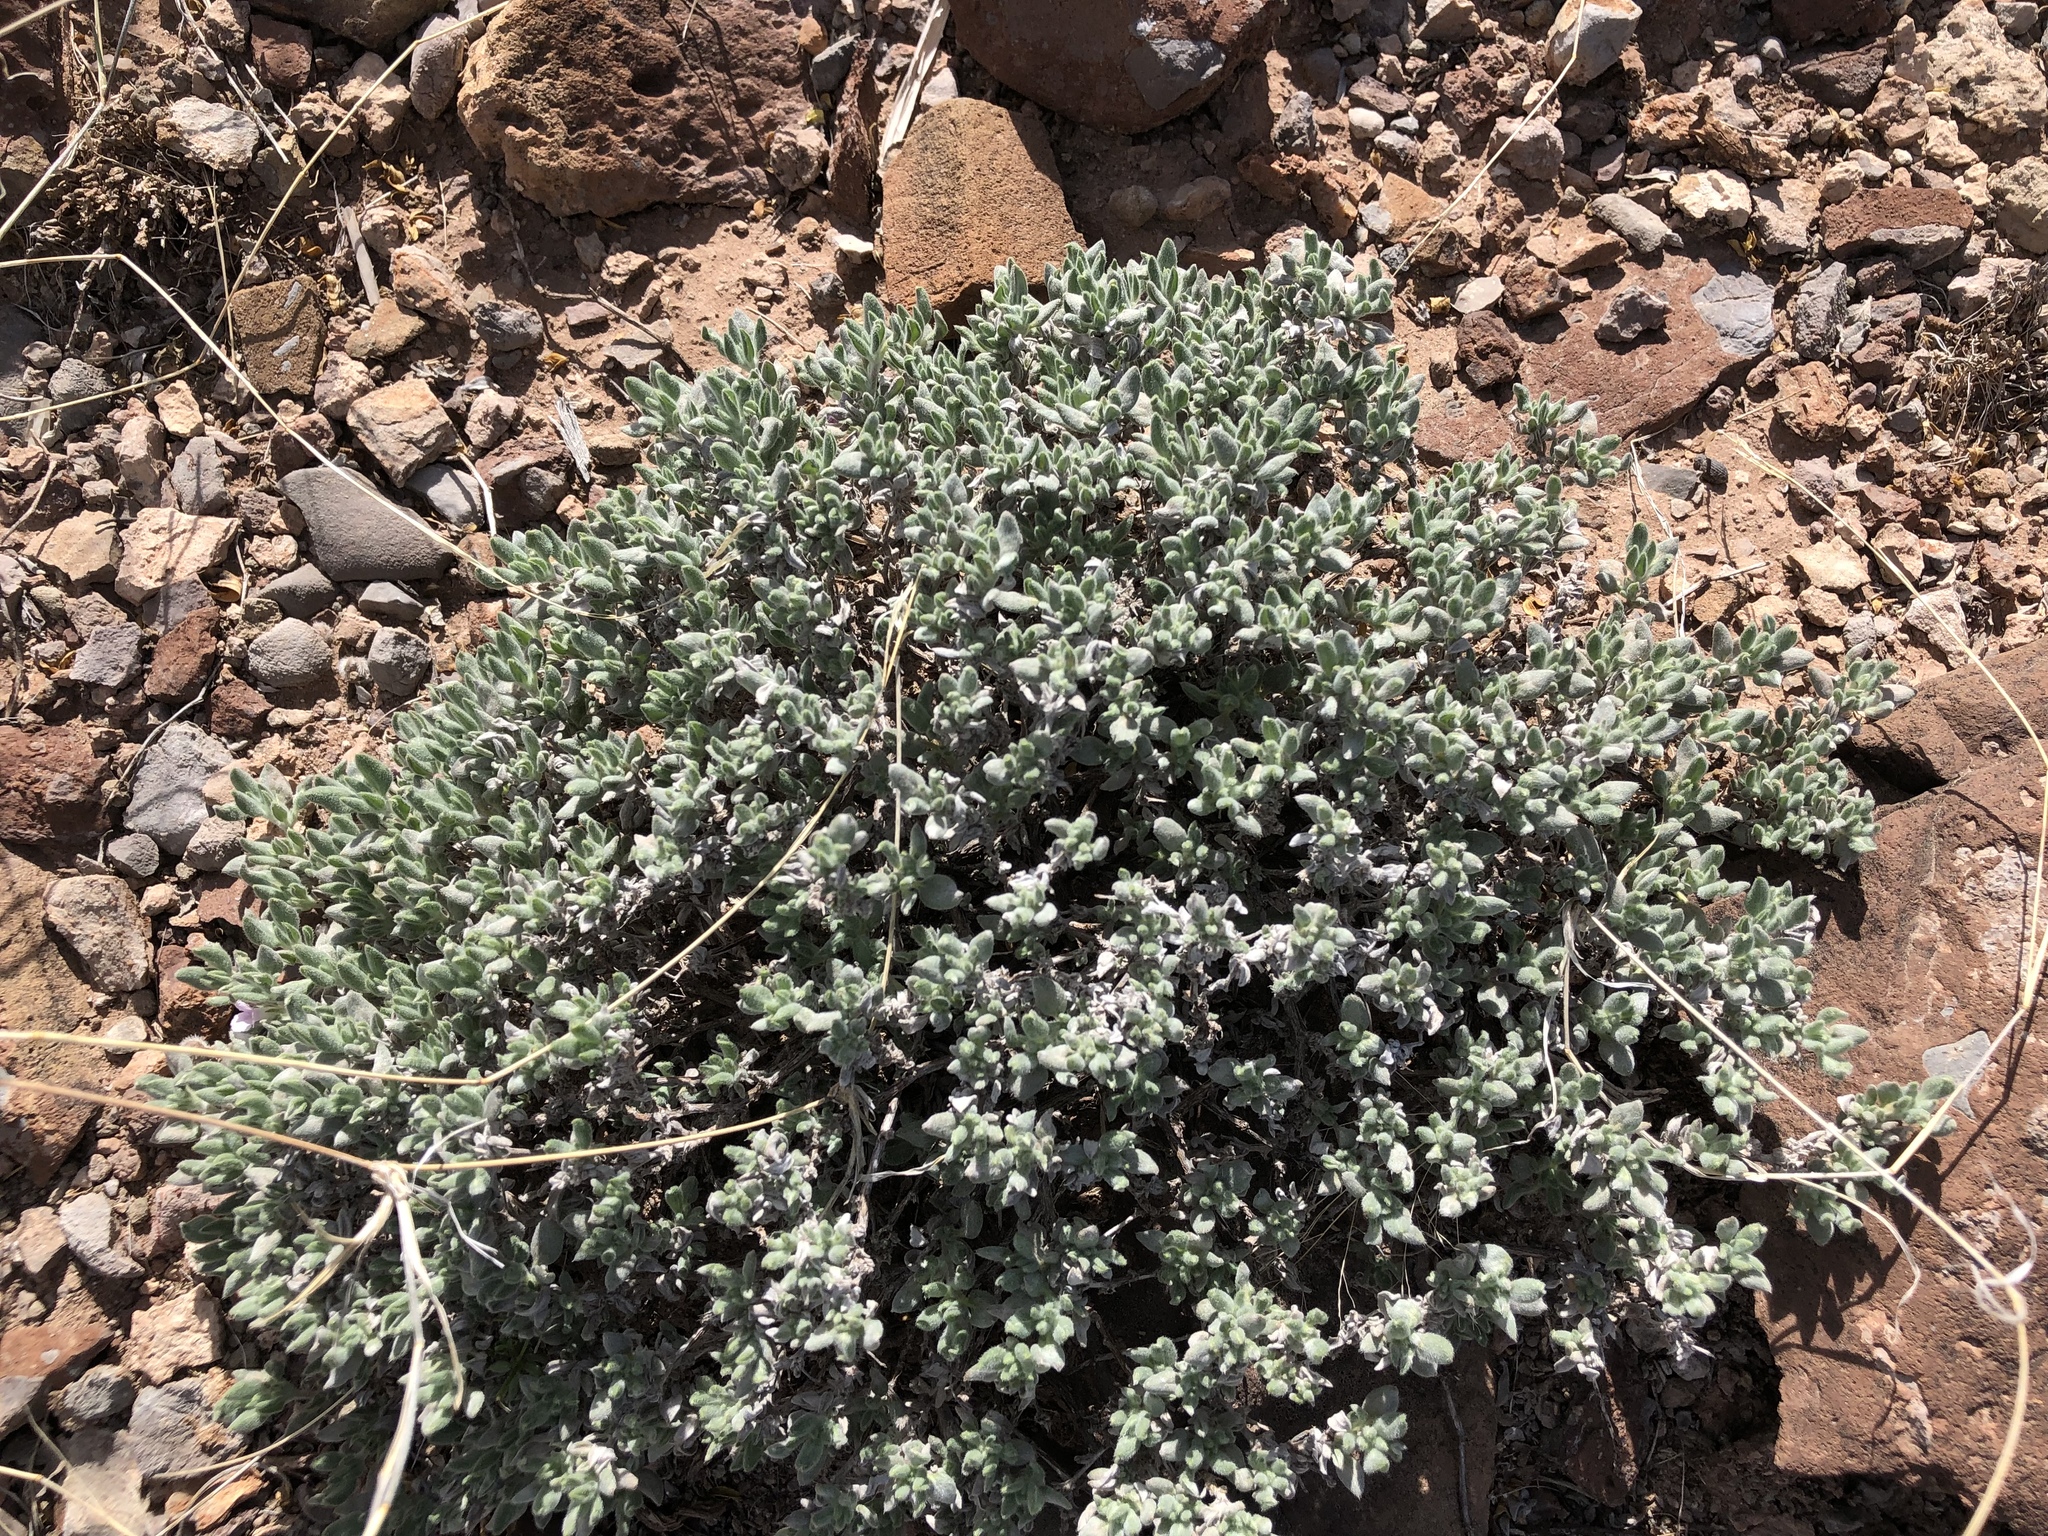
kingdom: Plantae
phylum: Tracheophyta
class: Magnoliopsida
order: Boraginales
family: Ehretiaceae
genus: Tiquilia
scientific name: Tiquilia canescens
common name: Hairy tiquilia
